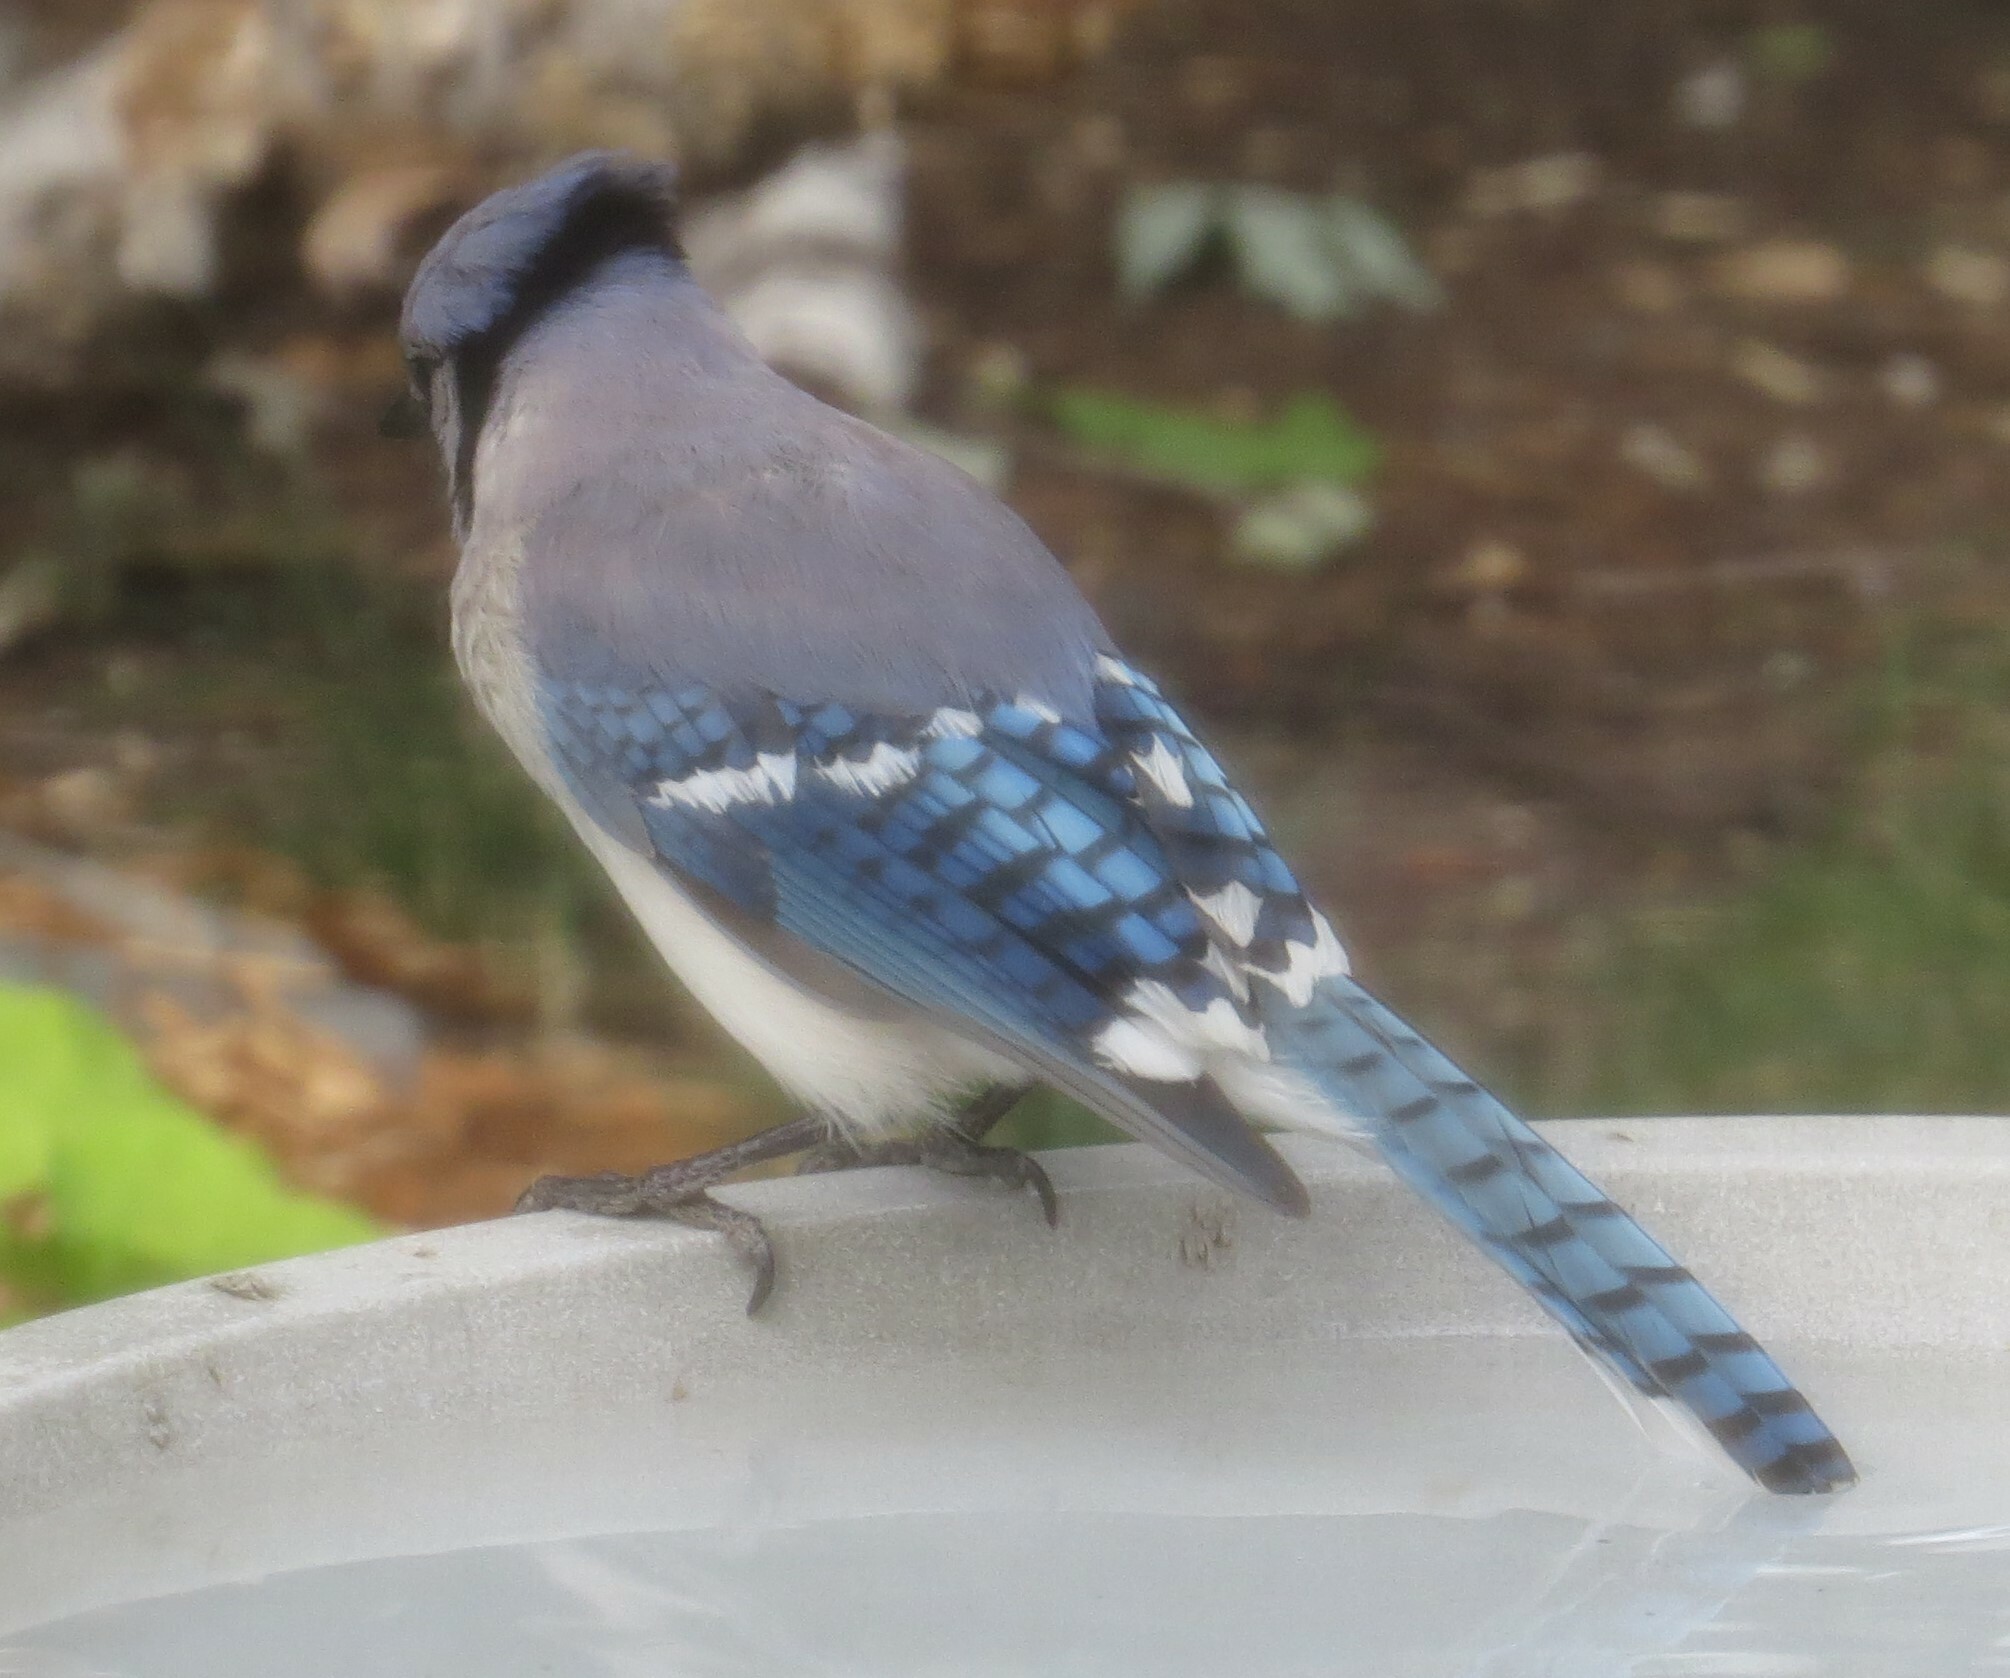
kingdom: Animalia
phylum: Chordata
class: Aves
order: Passeriformes
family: Corvidae
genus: Cyanocitta
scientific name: Cyanocitta cristata
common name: Blue jay
